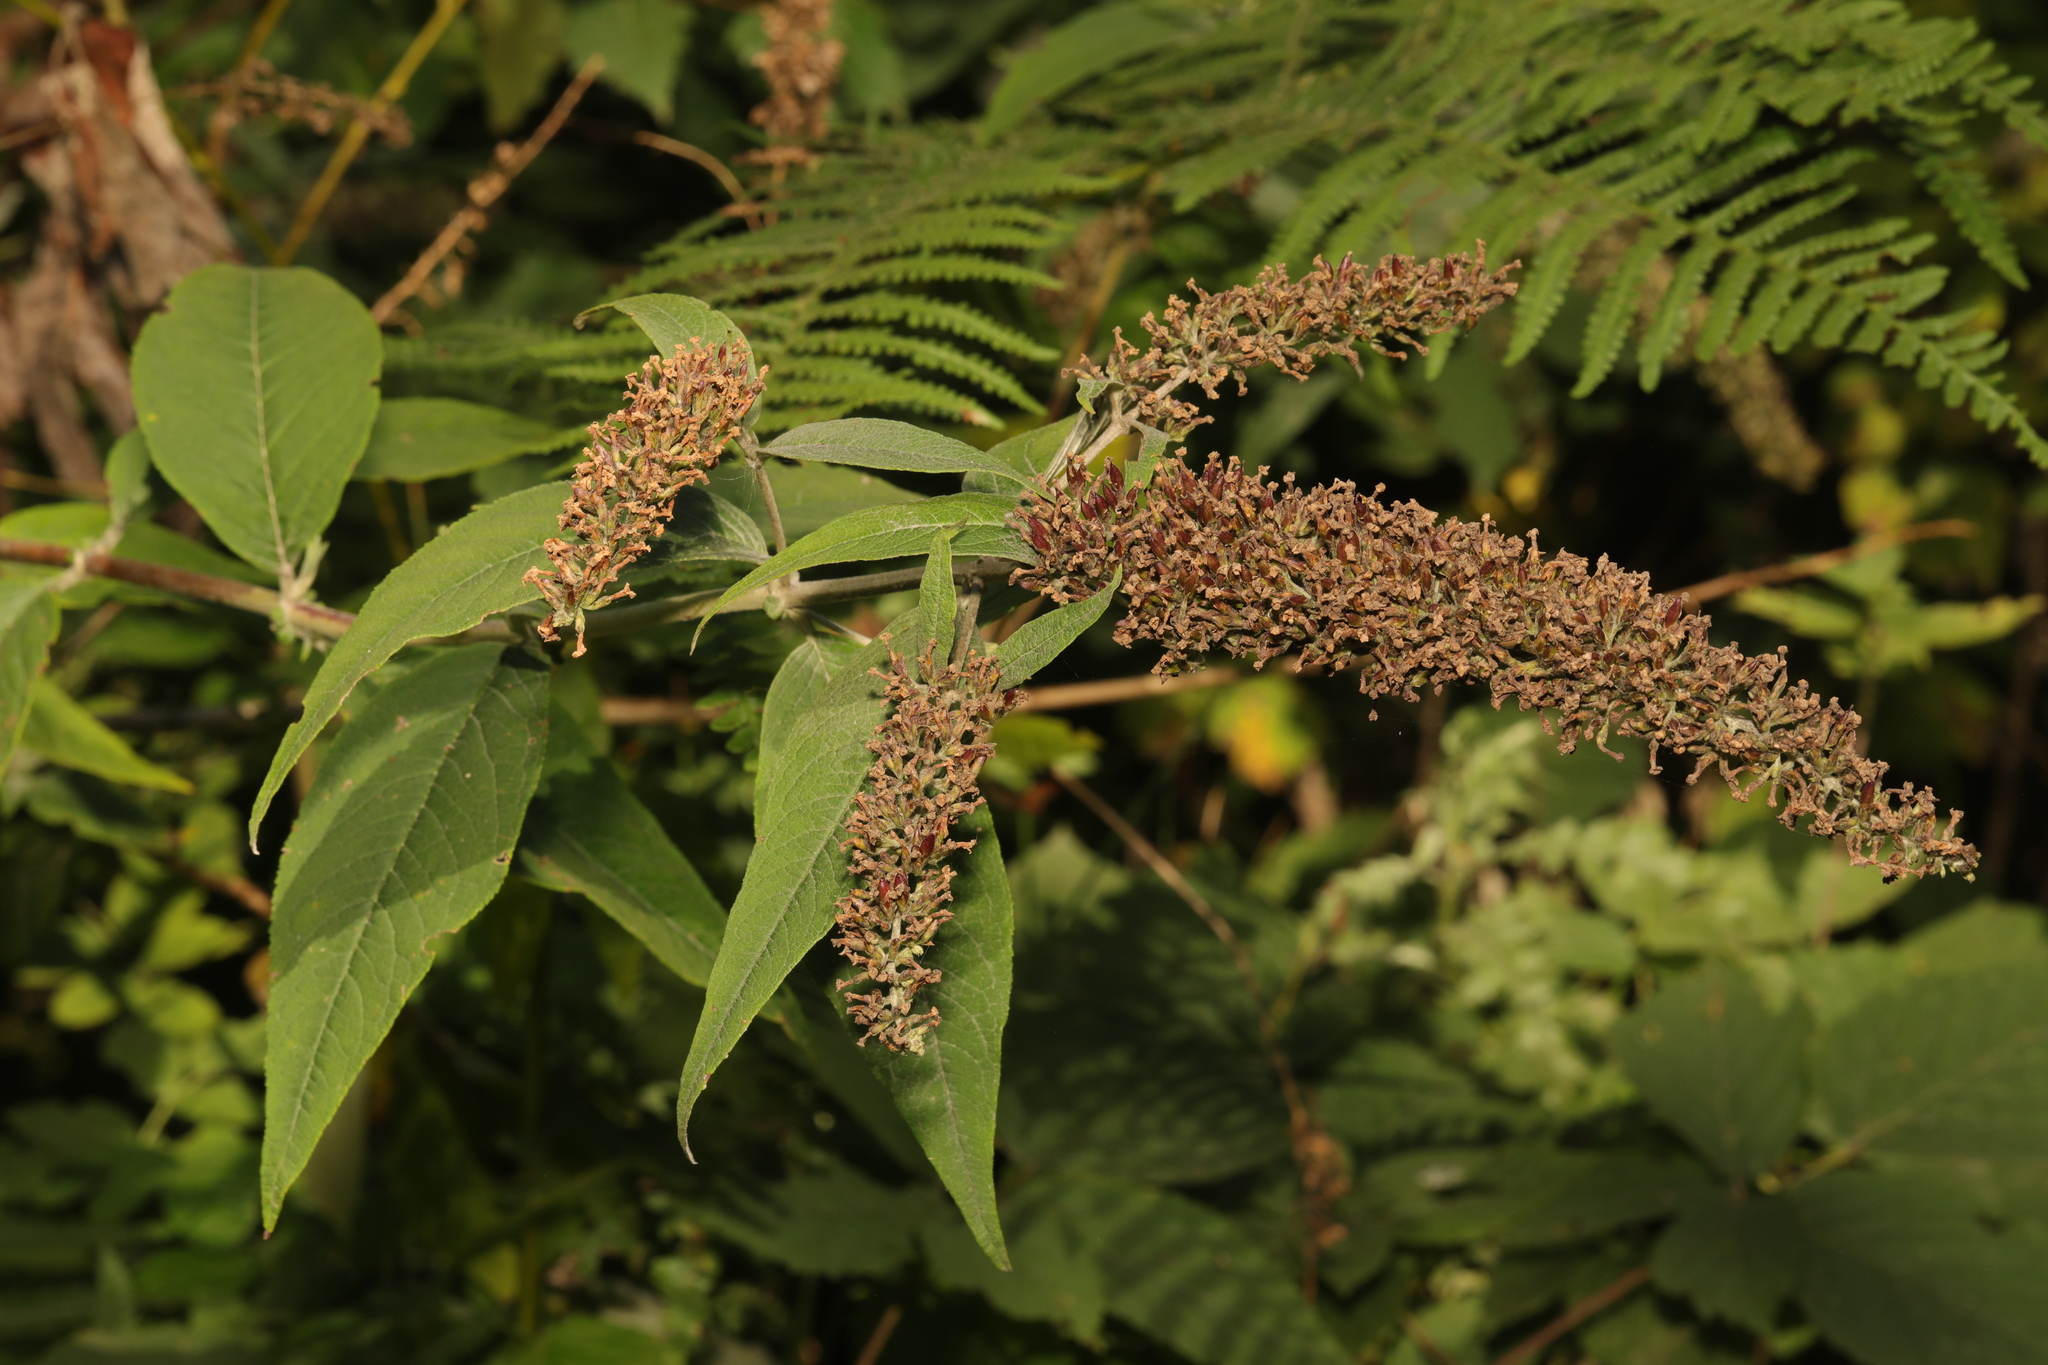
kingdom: Plantae
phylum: Tracheophyta
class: Magnoliopsida
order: Lamiales
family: Scrophulariaceae
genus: Buddleja
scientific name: Buddleja davidii
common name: Butterfly-bush
